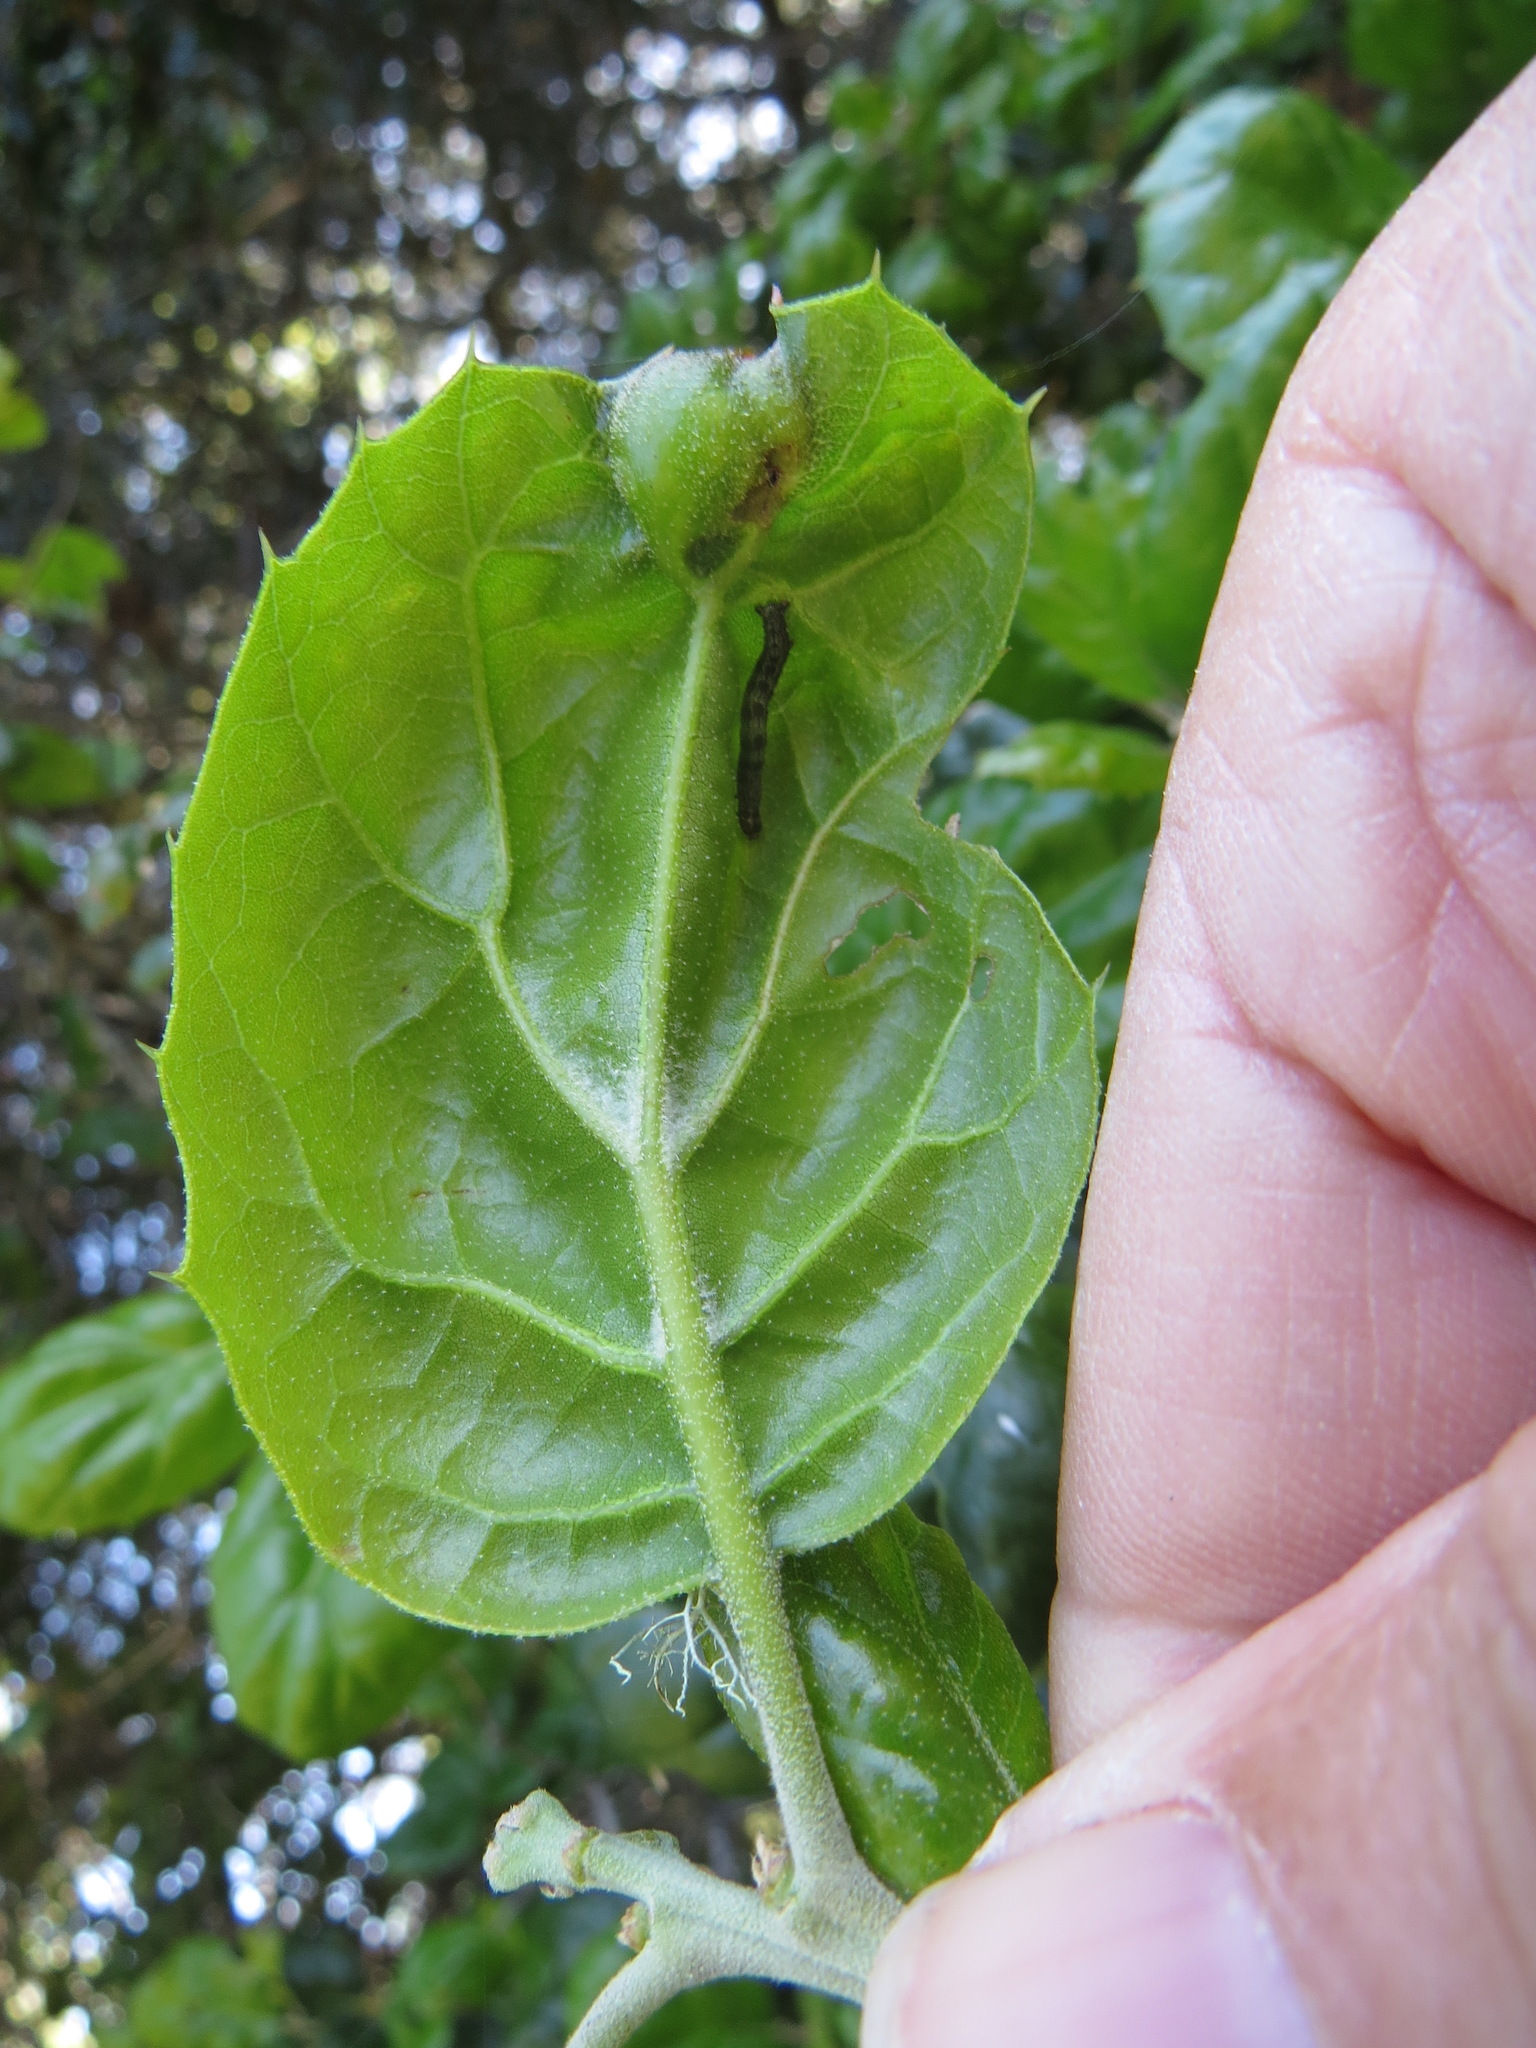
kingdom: Animalia
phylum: Arthropoda
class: Insecta
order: Hymenoptera
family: Cynipidae
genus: Callirhytis
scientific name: Callirhytis
